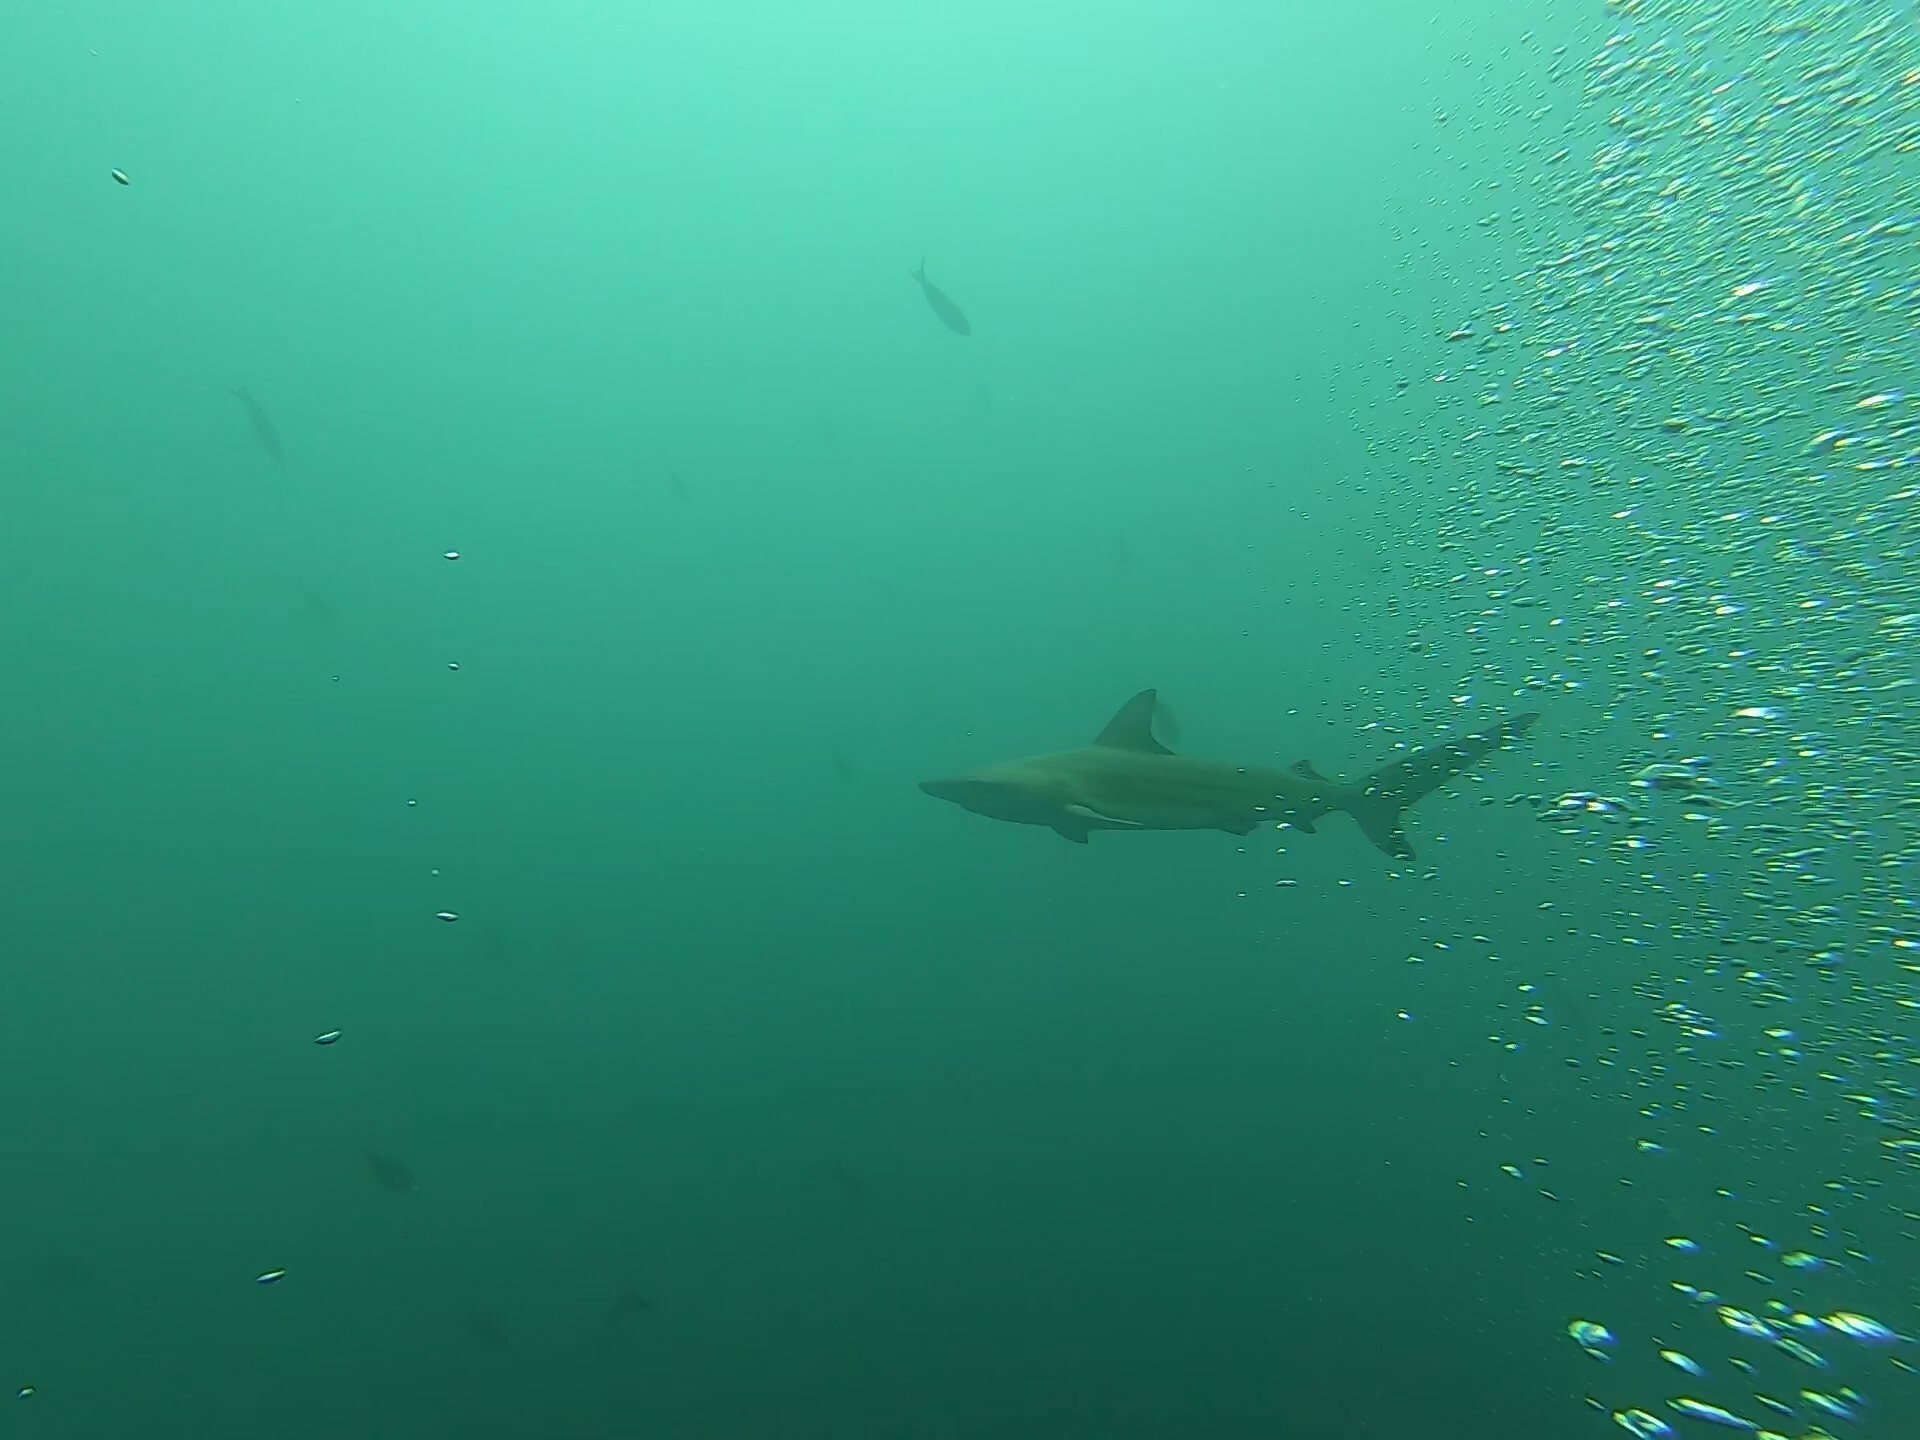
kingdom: Animalia
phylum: Chordata
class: Elasmobranchii
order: Carcharhiniformes
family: Carcharhinidae
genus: Carcharhinus
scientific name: Carcharhinus limbatus
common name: Blacktip shark
